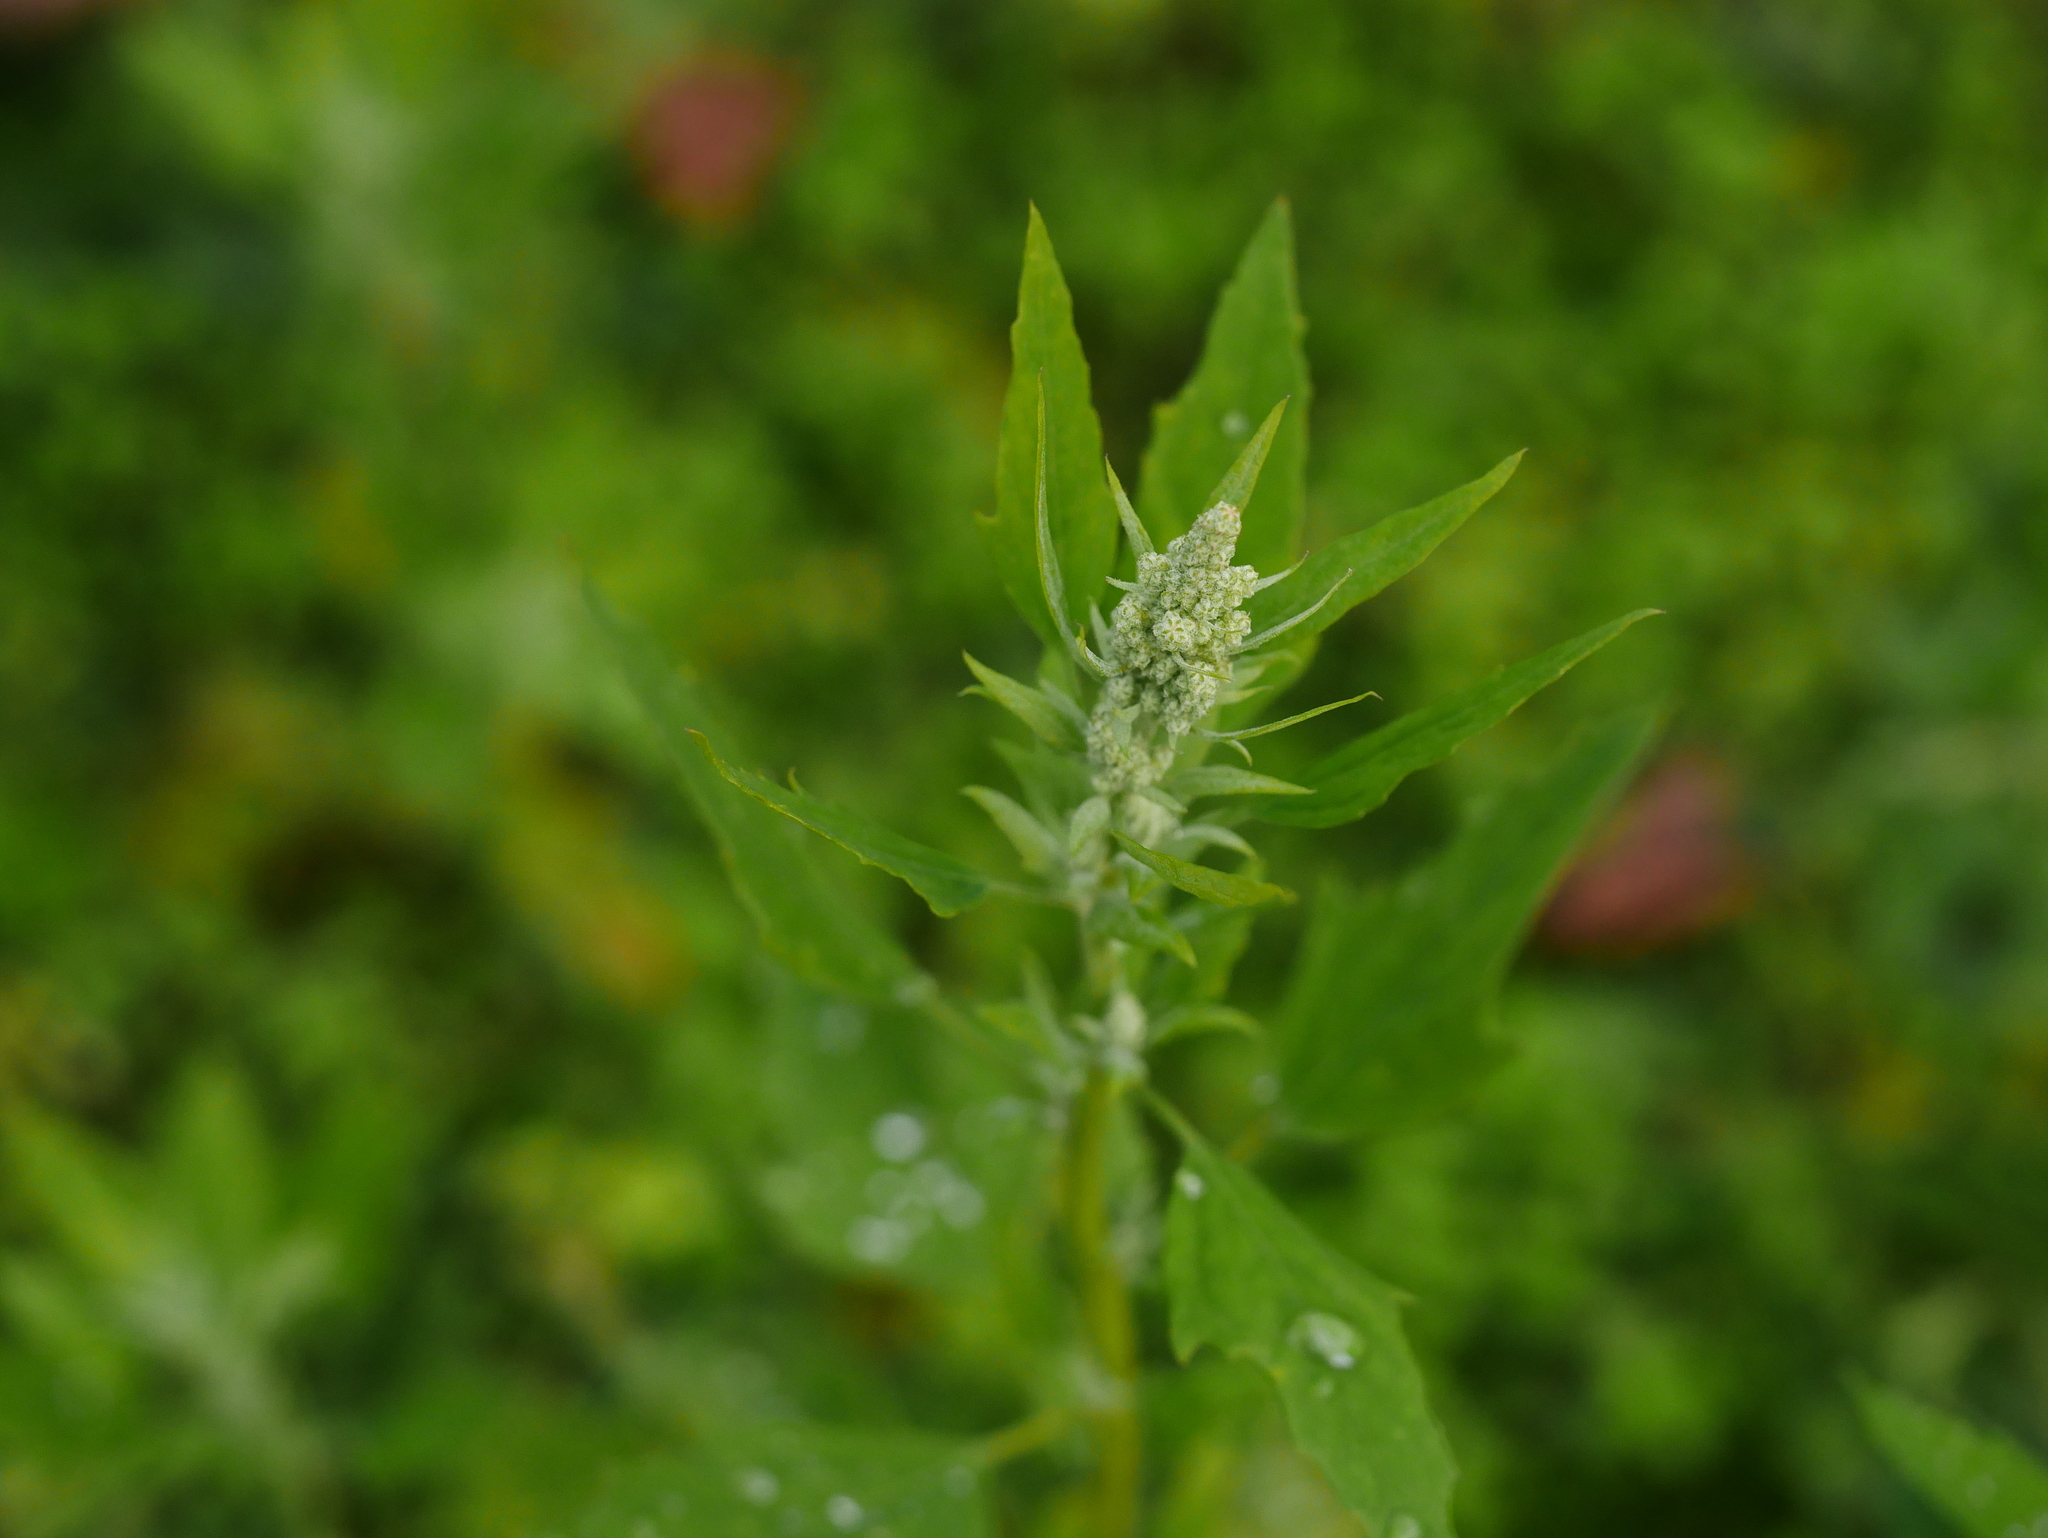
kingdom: Plantae
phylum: Tracheophyta
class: Magnoliopsida
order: Caryophyllales
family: Amaranthaceae
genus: Chenopodium
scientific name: Chenopodium album
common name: Fat-hen
